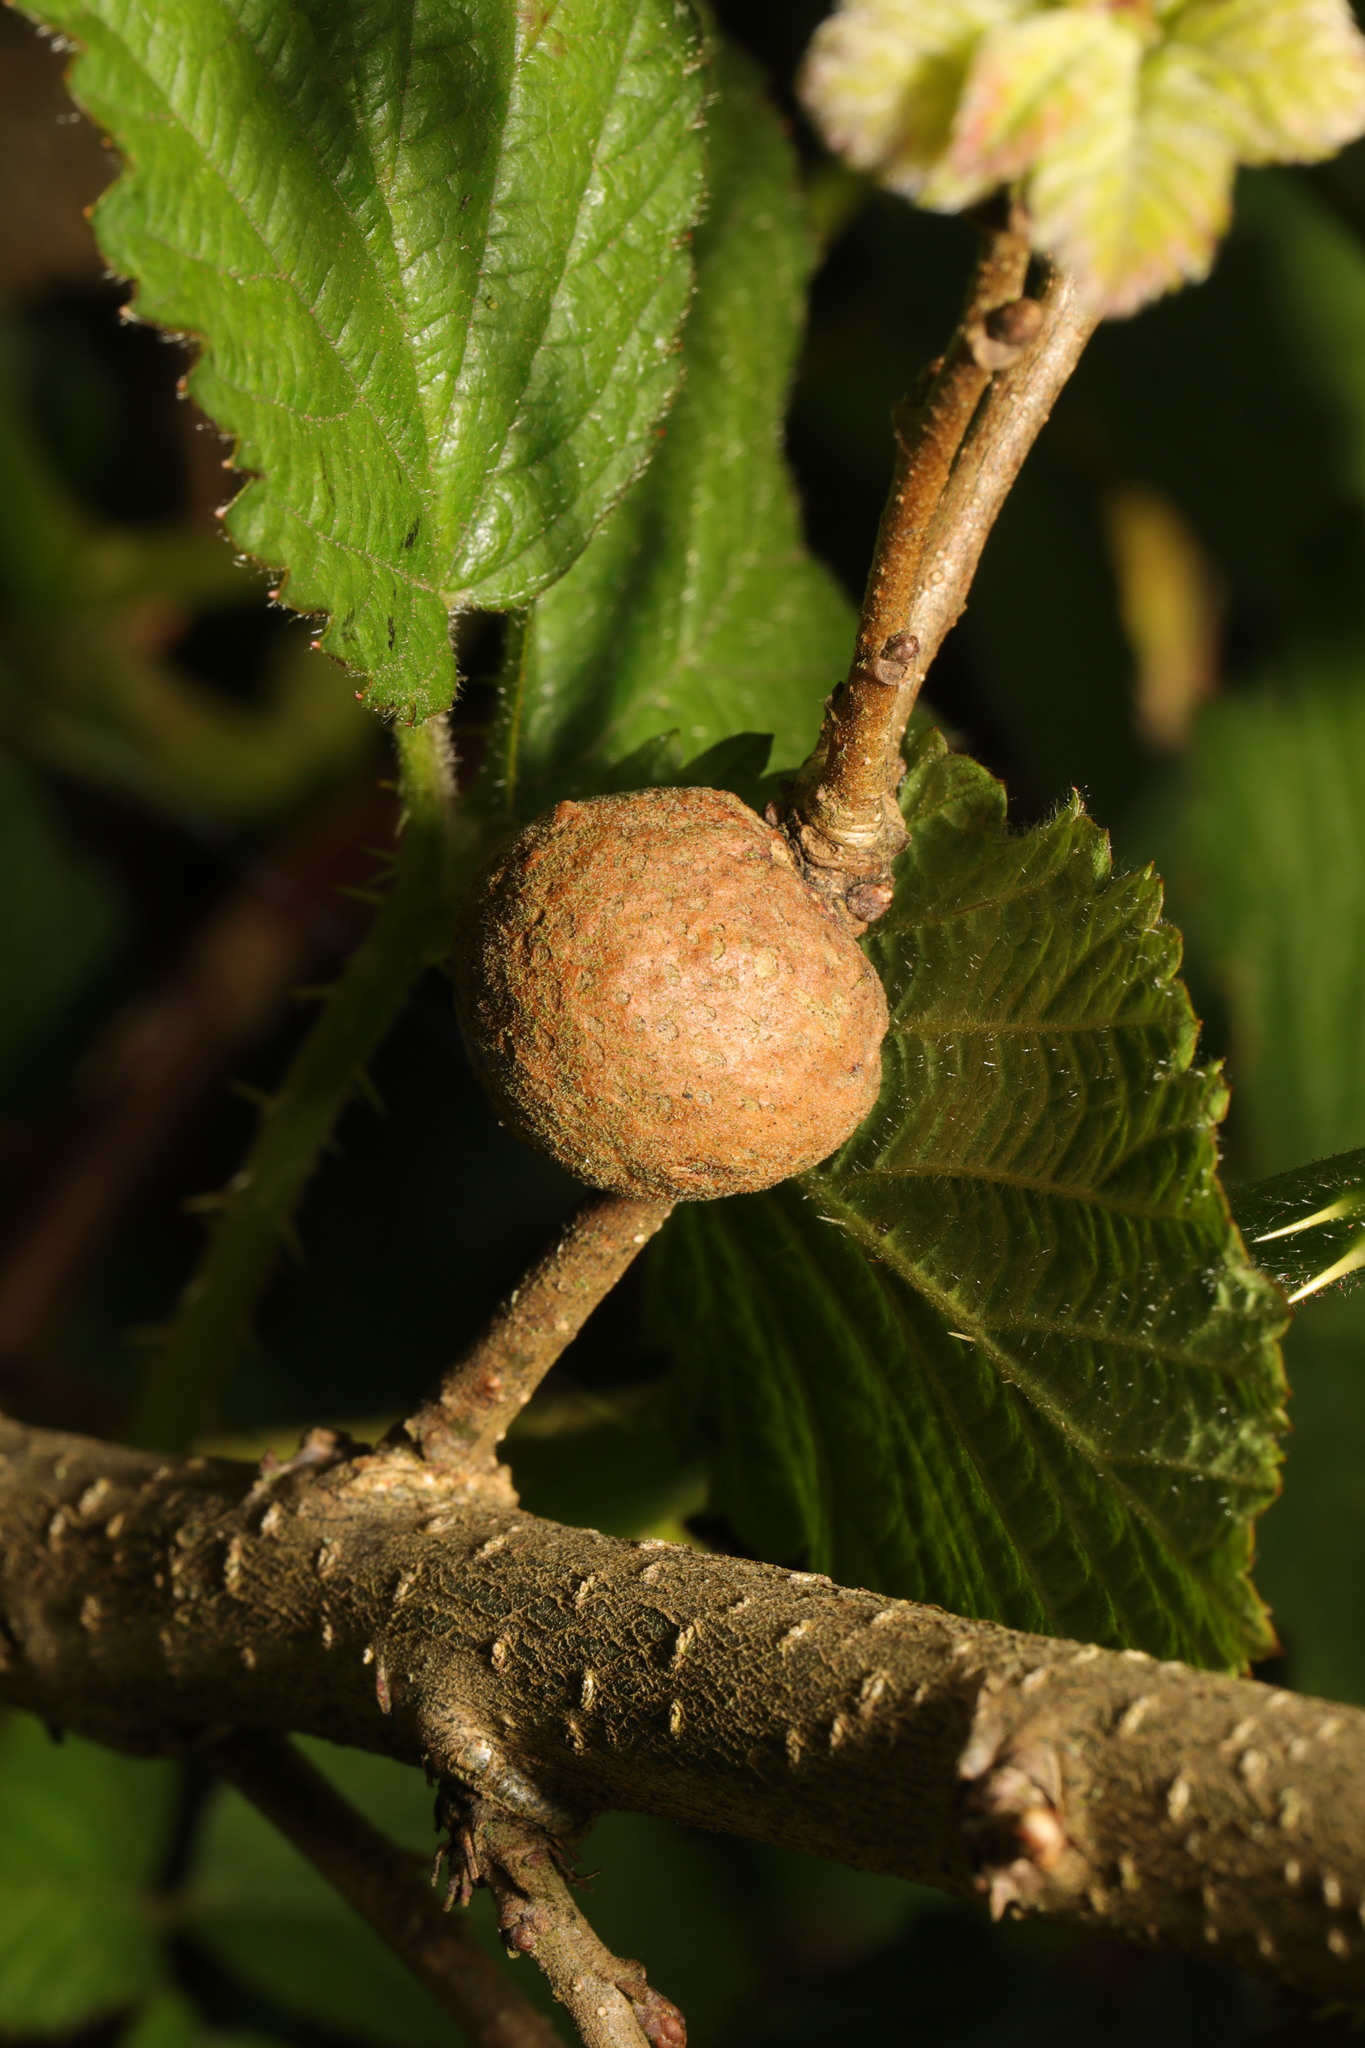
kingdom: Animalia
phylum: Arthropoda
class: Insecta
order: Hymenoptera
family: Cynipidae
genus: Aphelonyx
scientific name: Aphelonyx cerricola
